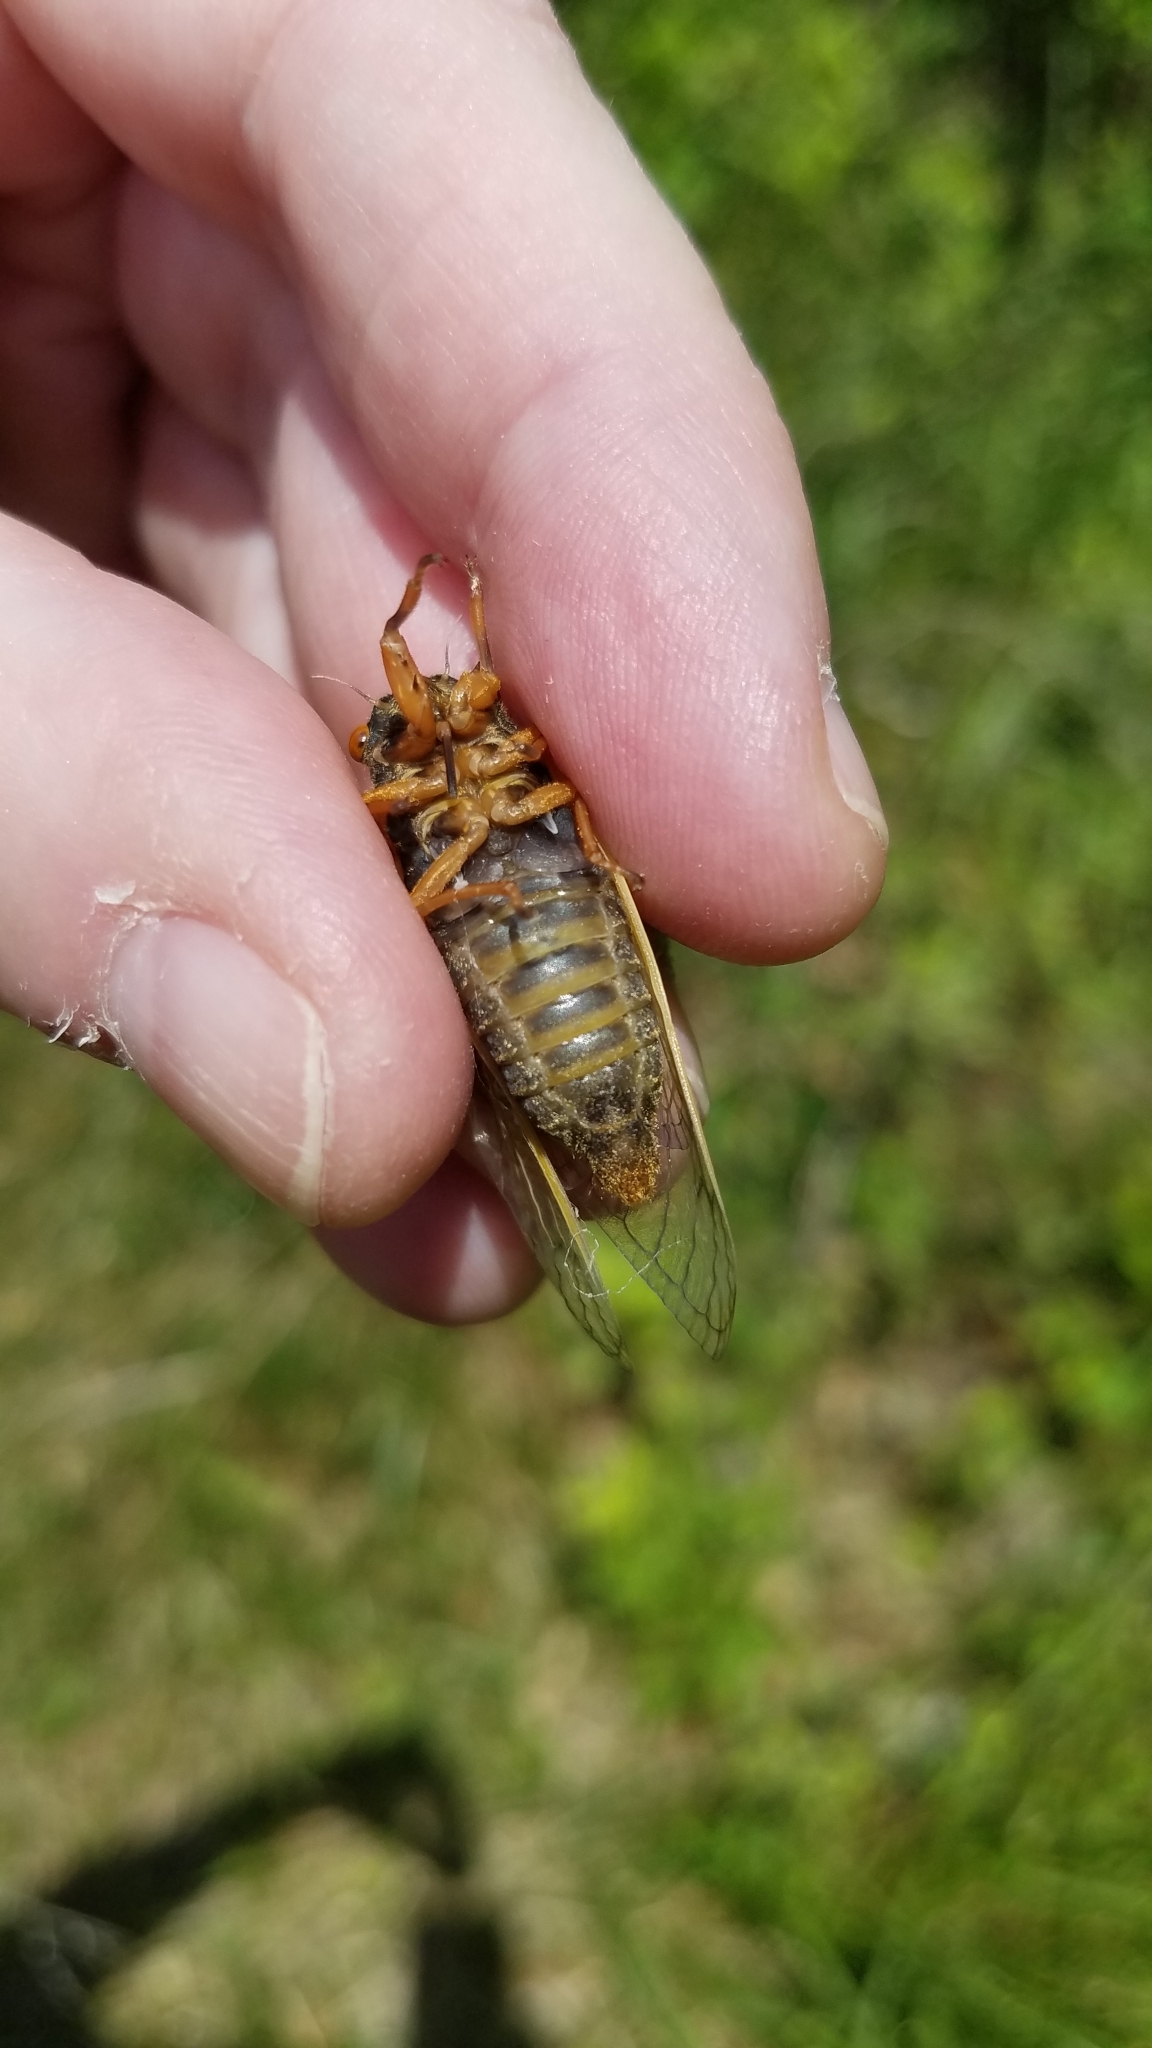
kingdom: Animalia
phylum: Arthropoda
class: Insecta
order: Hemiptera
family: Cicadidae
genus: Magicicada
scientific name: Magicicada cassini
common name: Cassin's 17-year cicada
